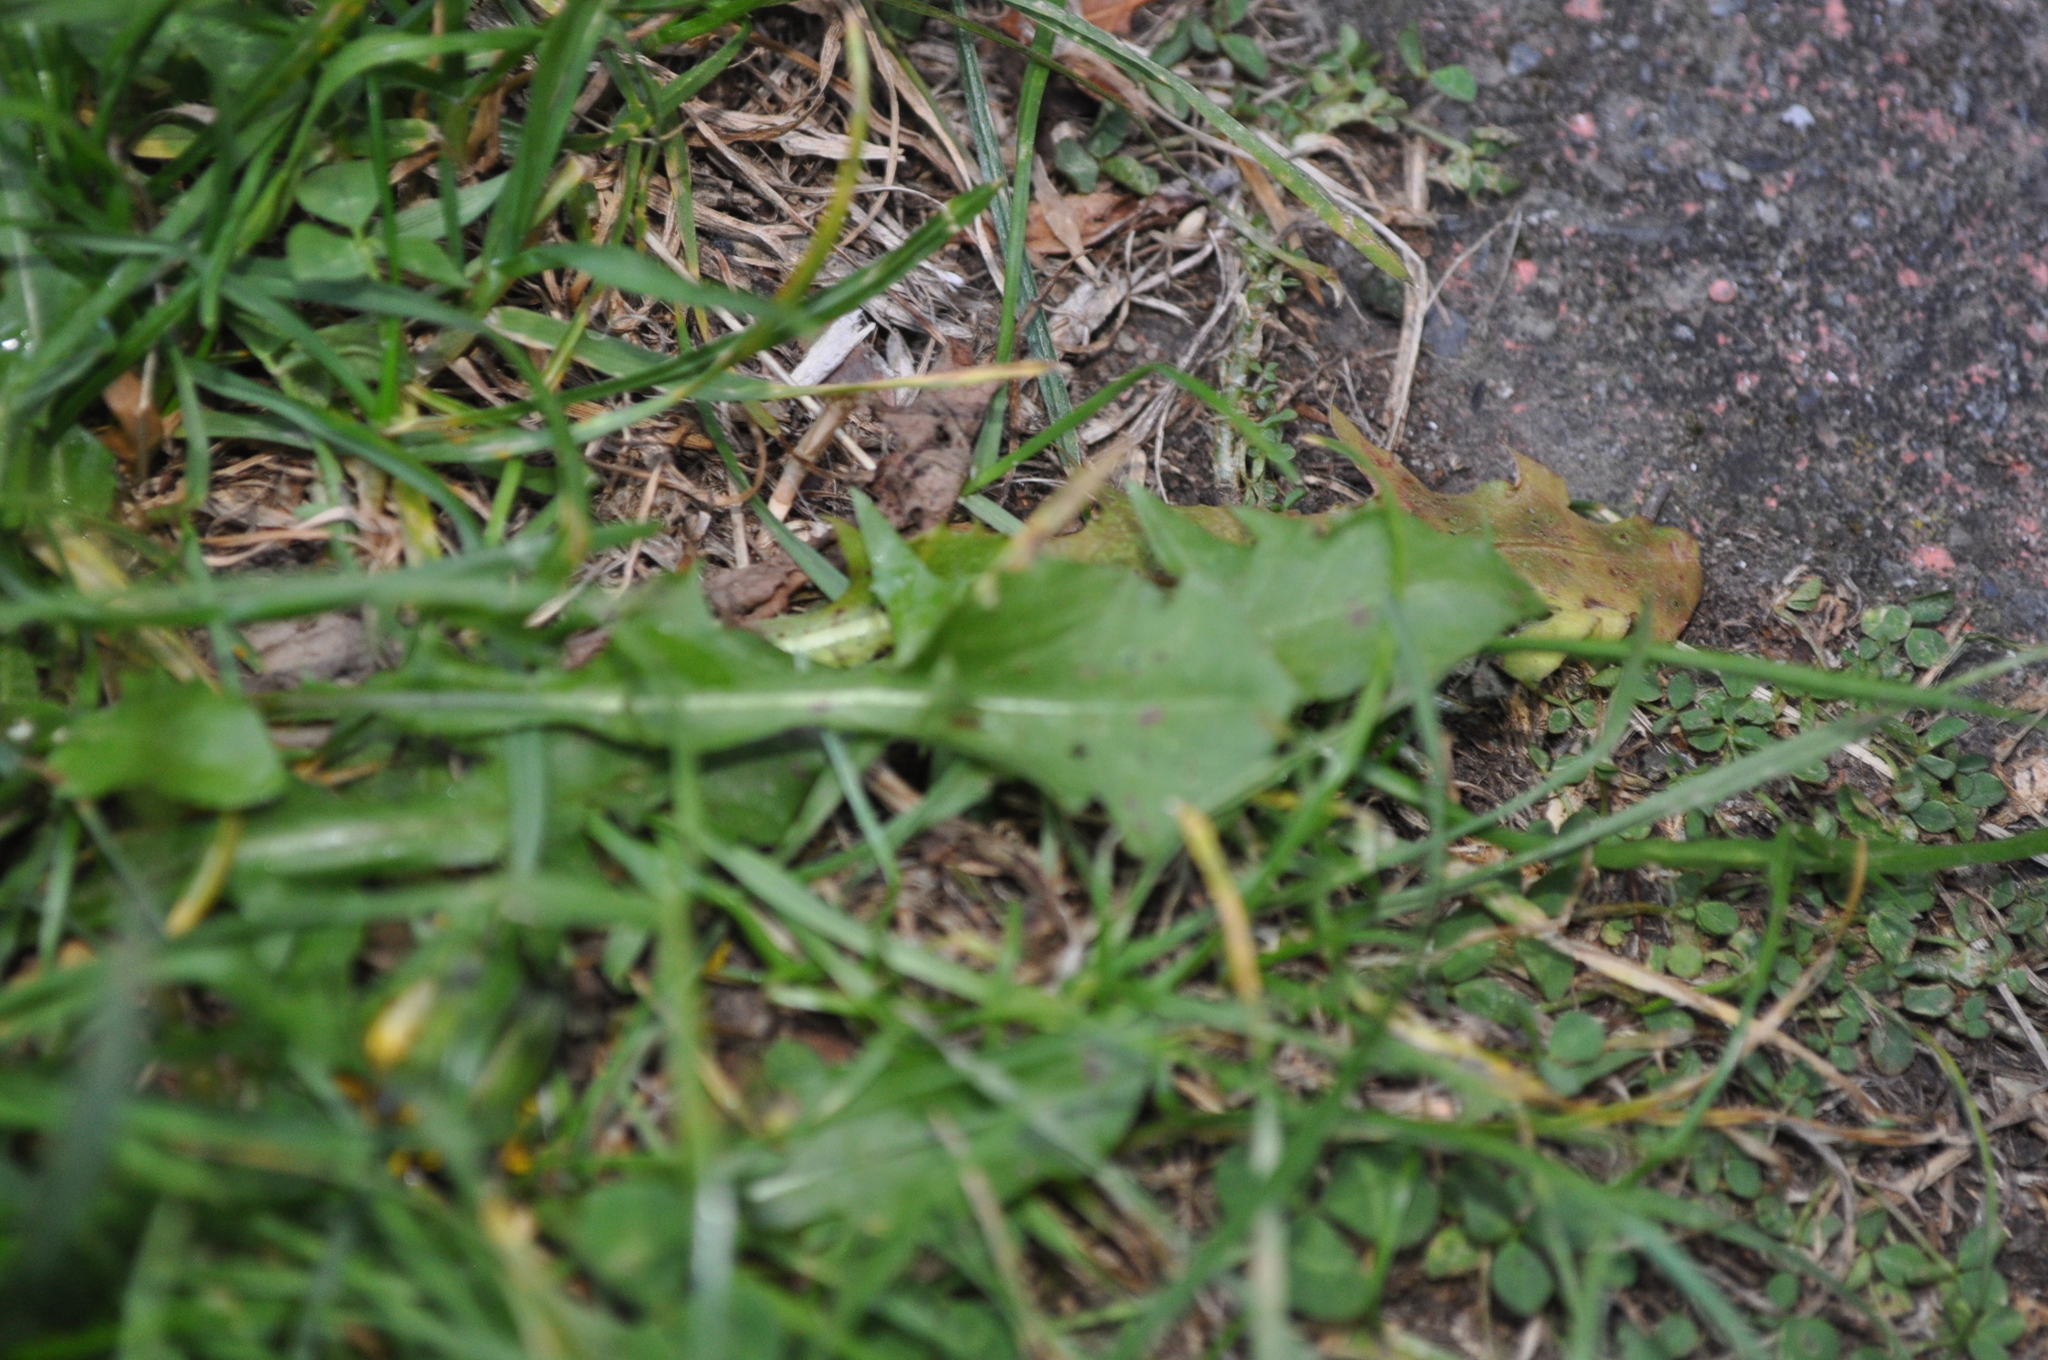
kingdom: Plantae
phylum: Tracheophyta
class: Magnoliopsida
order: Asterales
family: Asteraceae
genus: Taraxacum
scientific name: Taraxacum officinale
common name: Common dandelion
